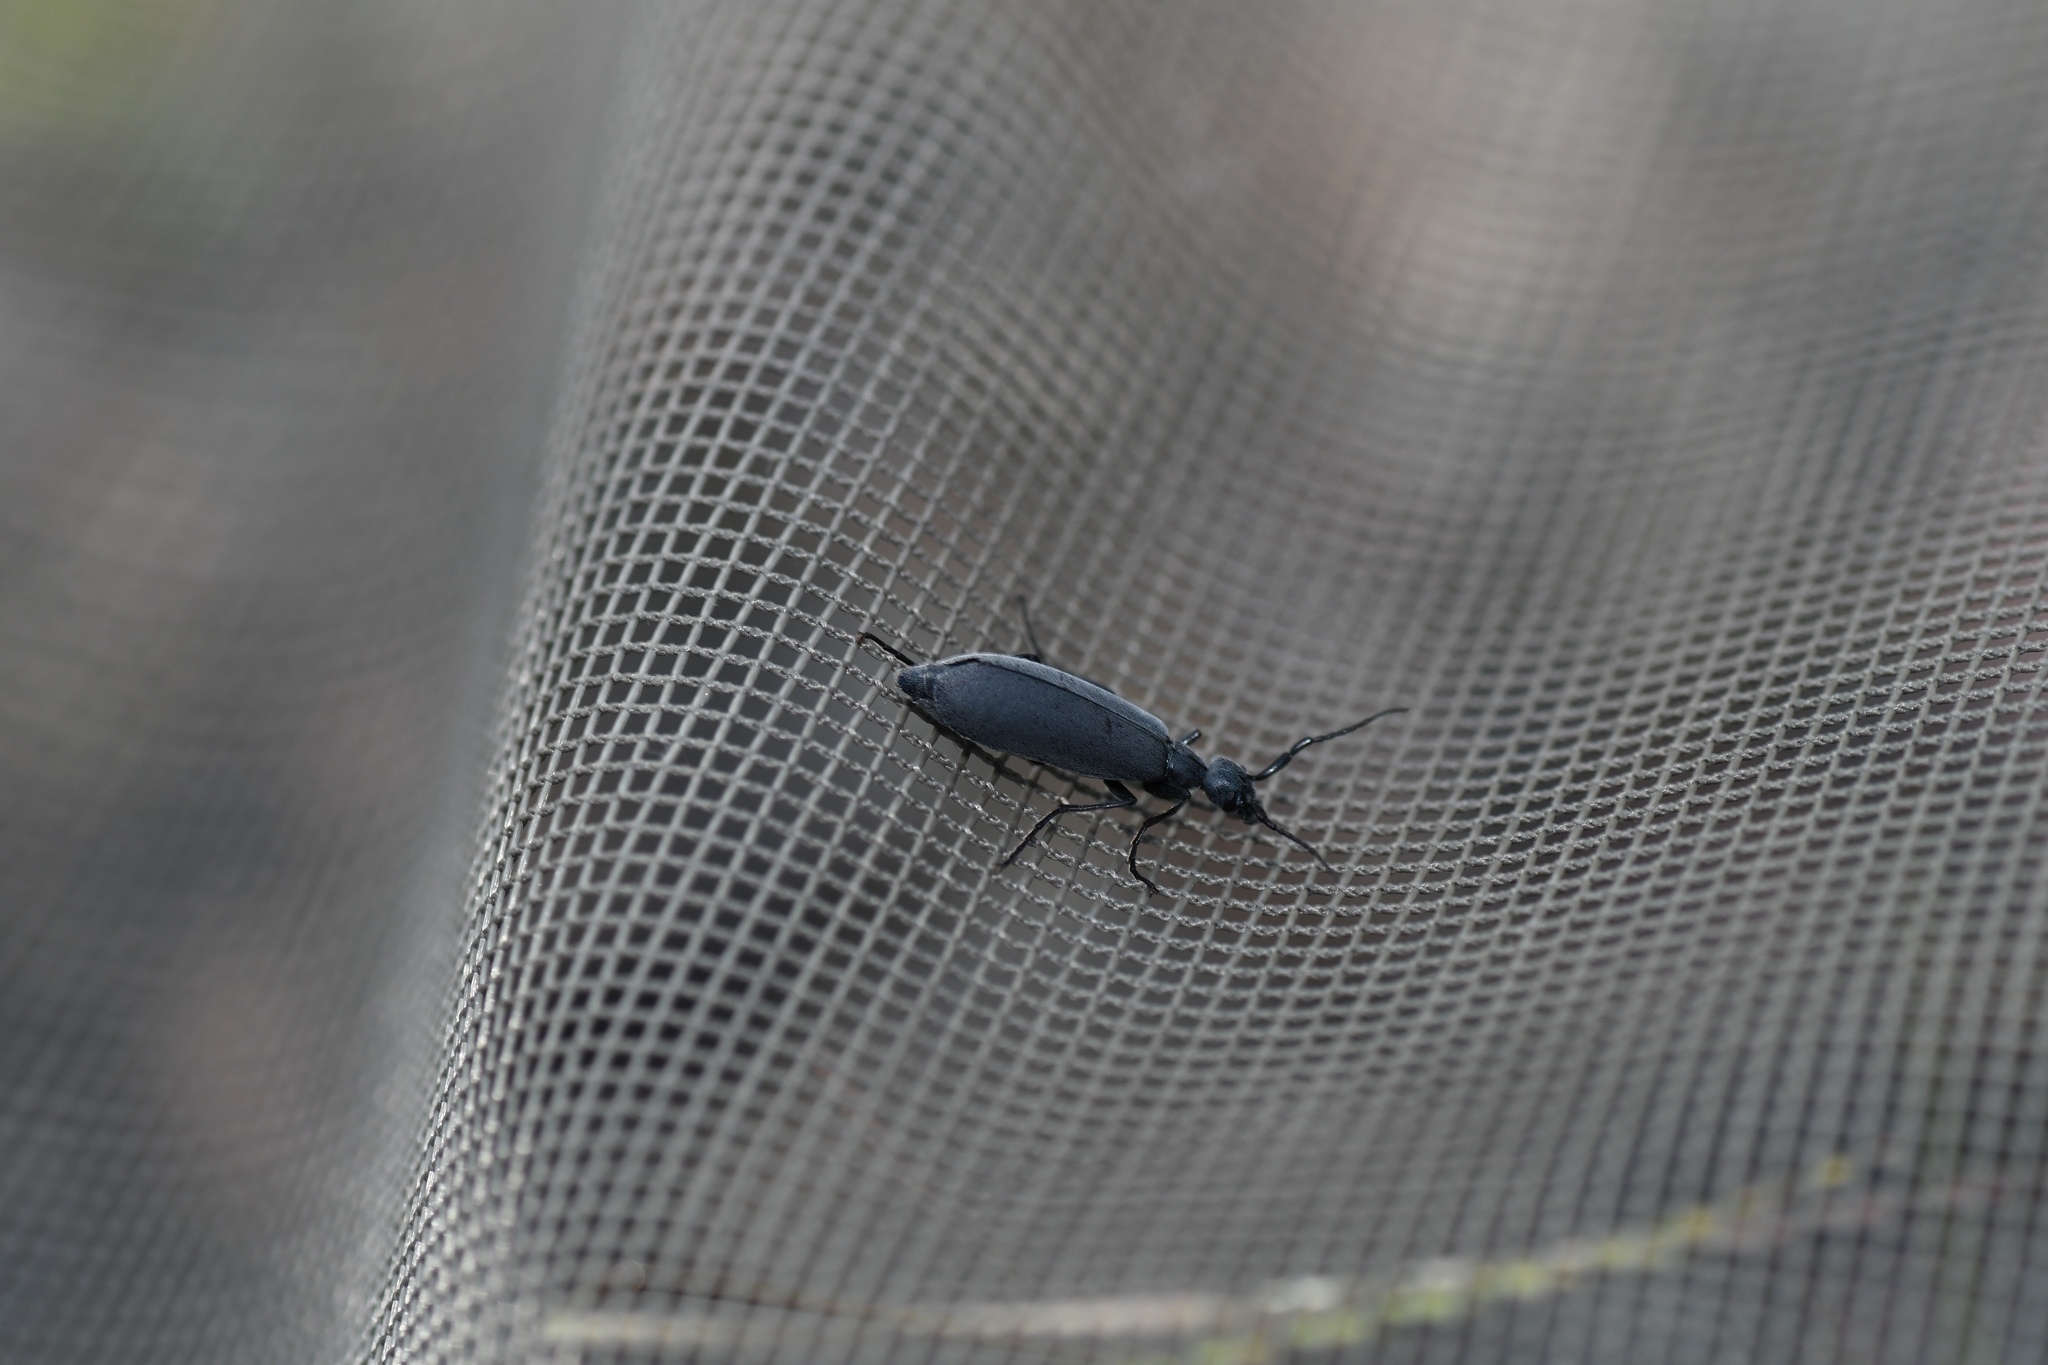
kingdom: Animalia
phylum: Arthropoda
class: Insecta
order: Coleoptera
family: Meloidae
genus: Epicauta
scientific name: Epicauta murina
